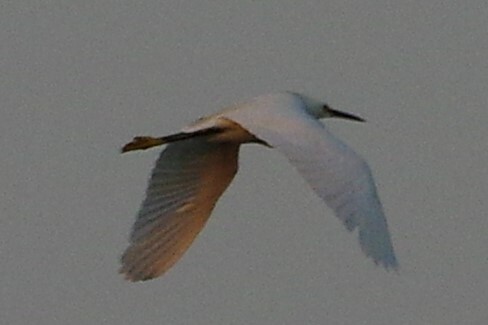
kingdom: Animalia
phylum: Chordata
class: Aves
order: Pelecaniformes
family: Ardeidae
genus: Egretta
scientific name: Egretta thula
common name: Snowy egret
